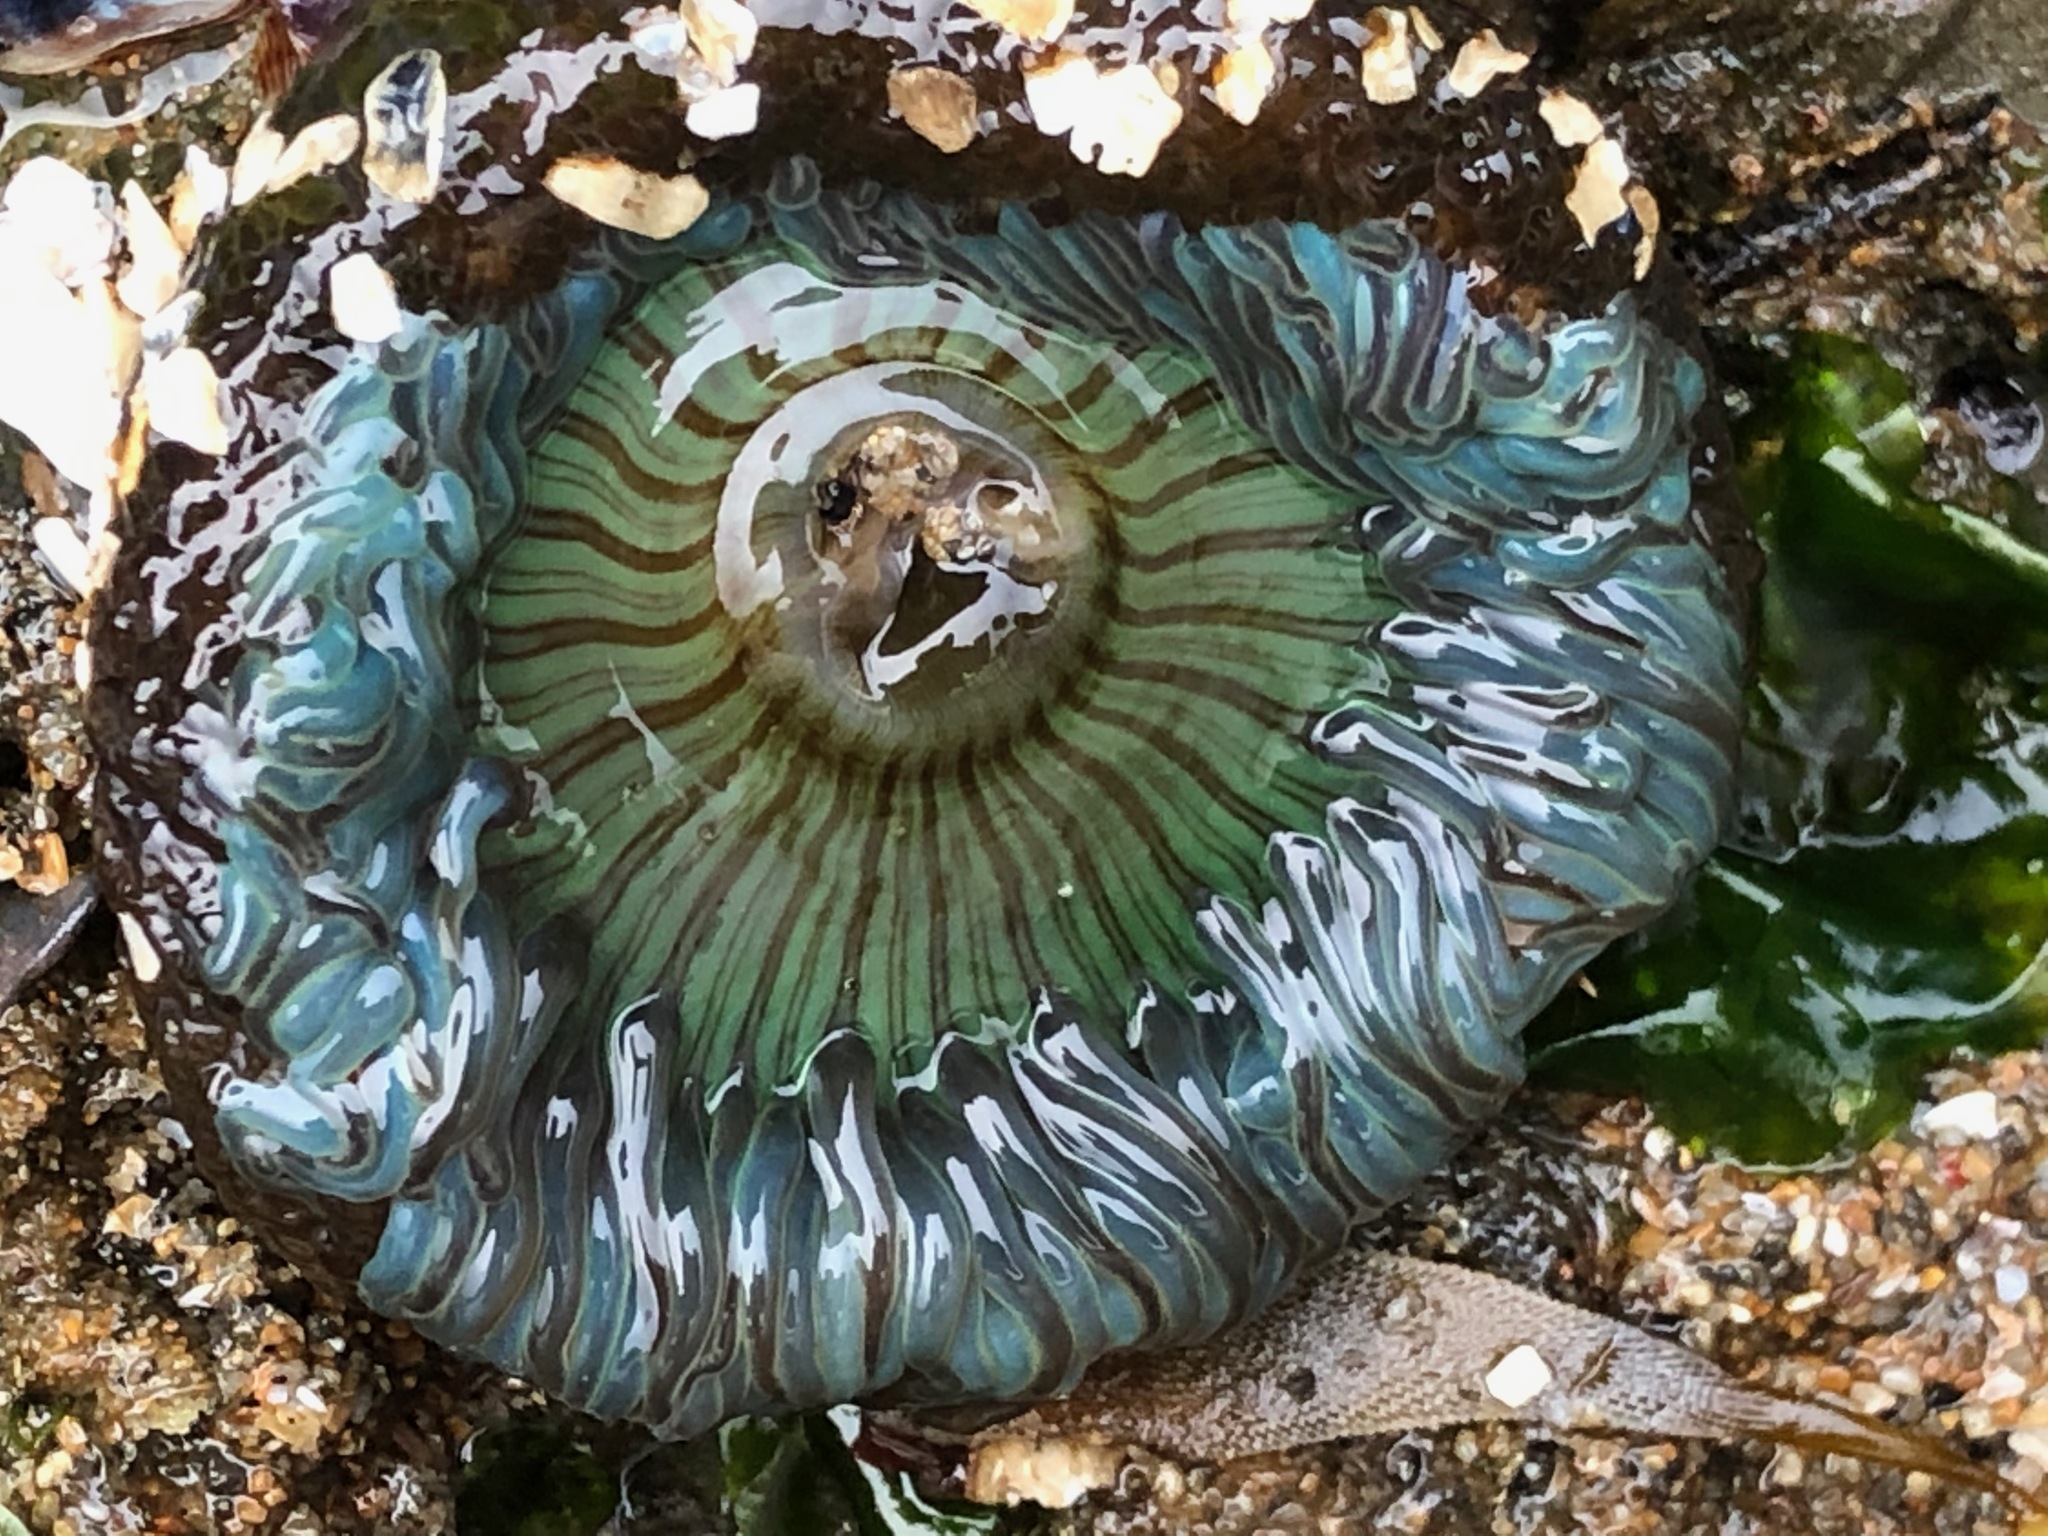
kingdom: Animalia
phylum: Cnidaria
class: Anthozoa
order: Actiniaria
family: Actiniidae
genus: Anthopleura
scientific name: Anthopleura sola
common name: Sun anemone
